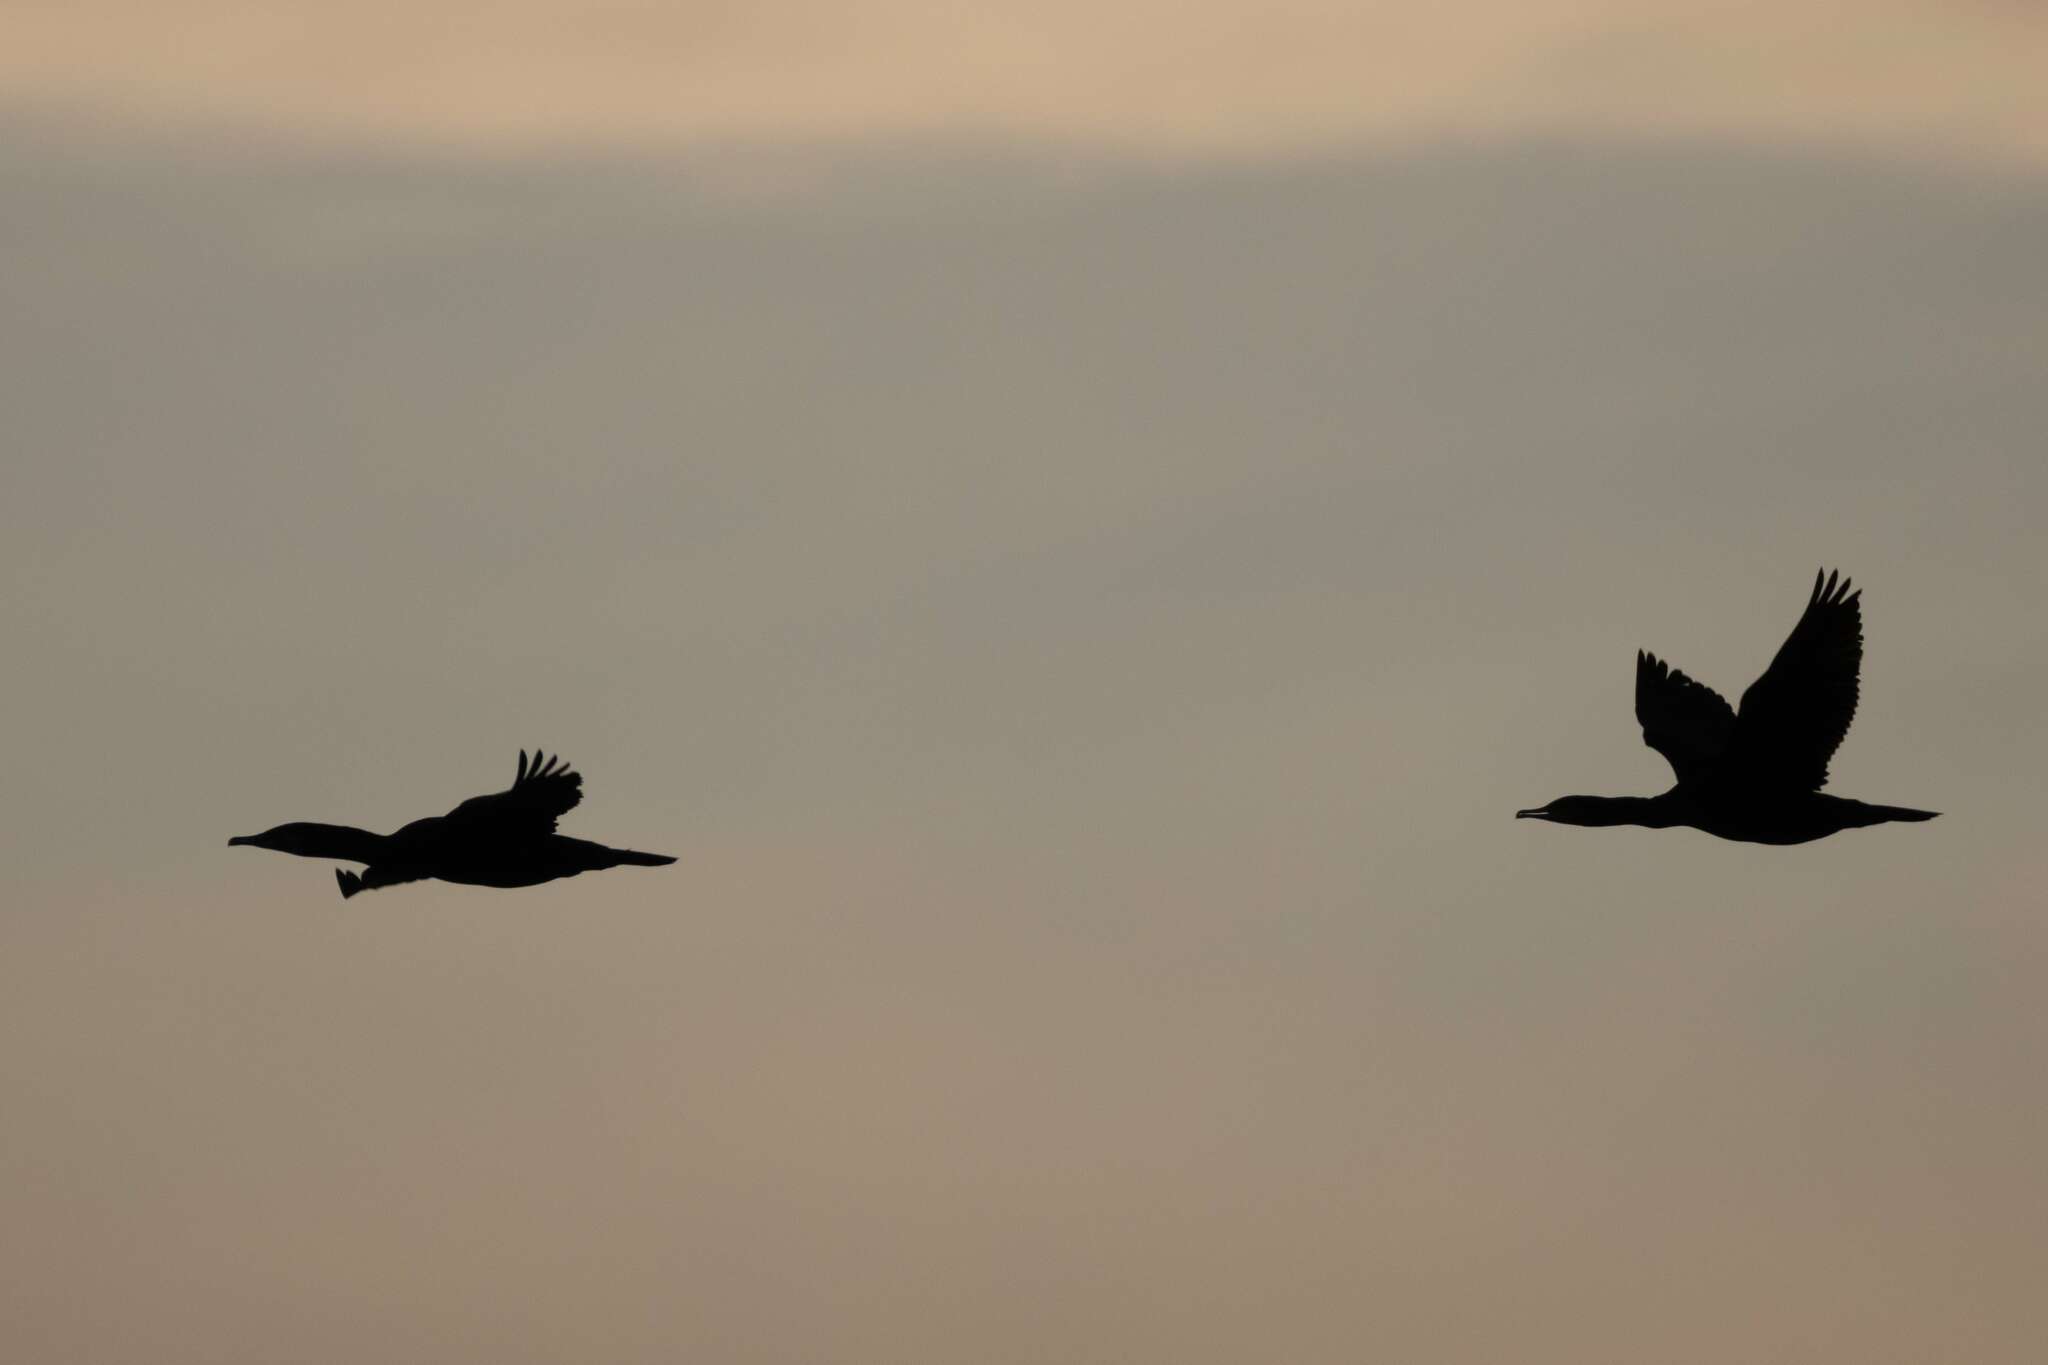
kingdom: Animalia
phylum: Chordata
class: Aves
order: Suliformes
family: Phalacrocoracidae
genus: Phalacrocorax
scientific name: Phalacrocorax carbo
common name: Great cormorant
